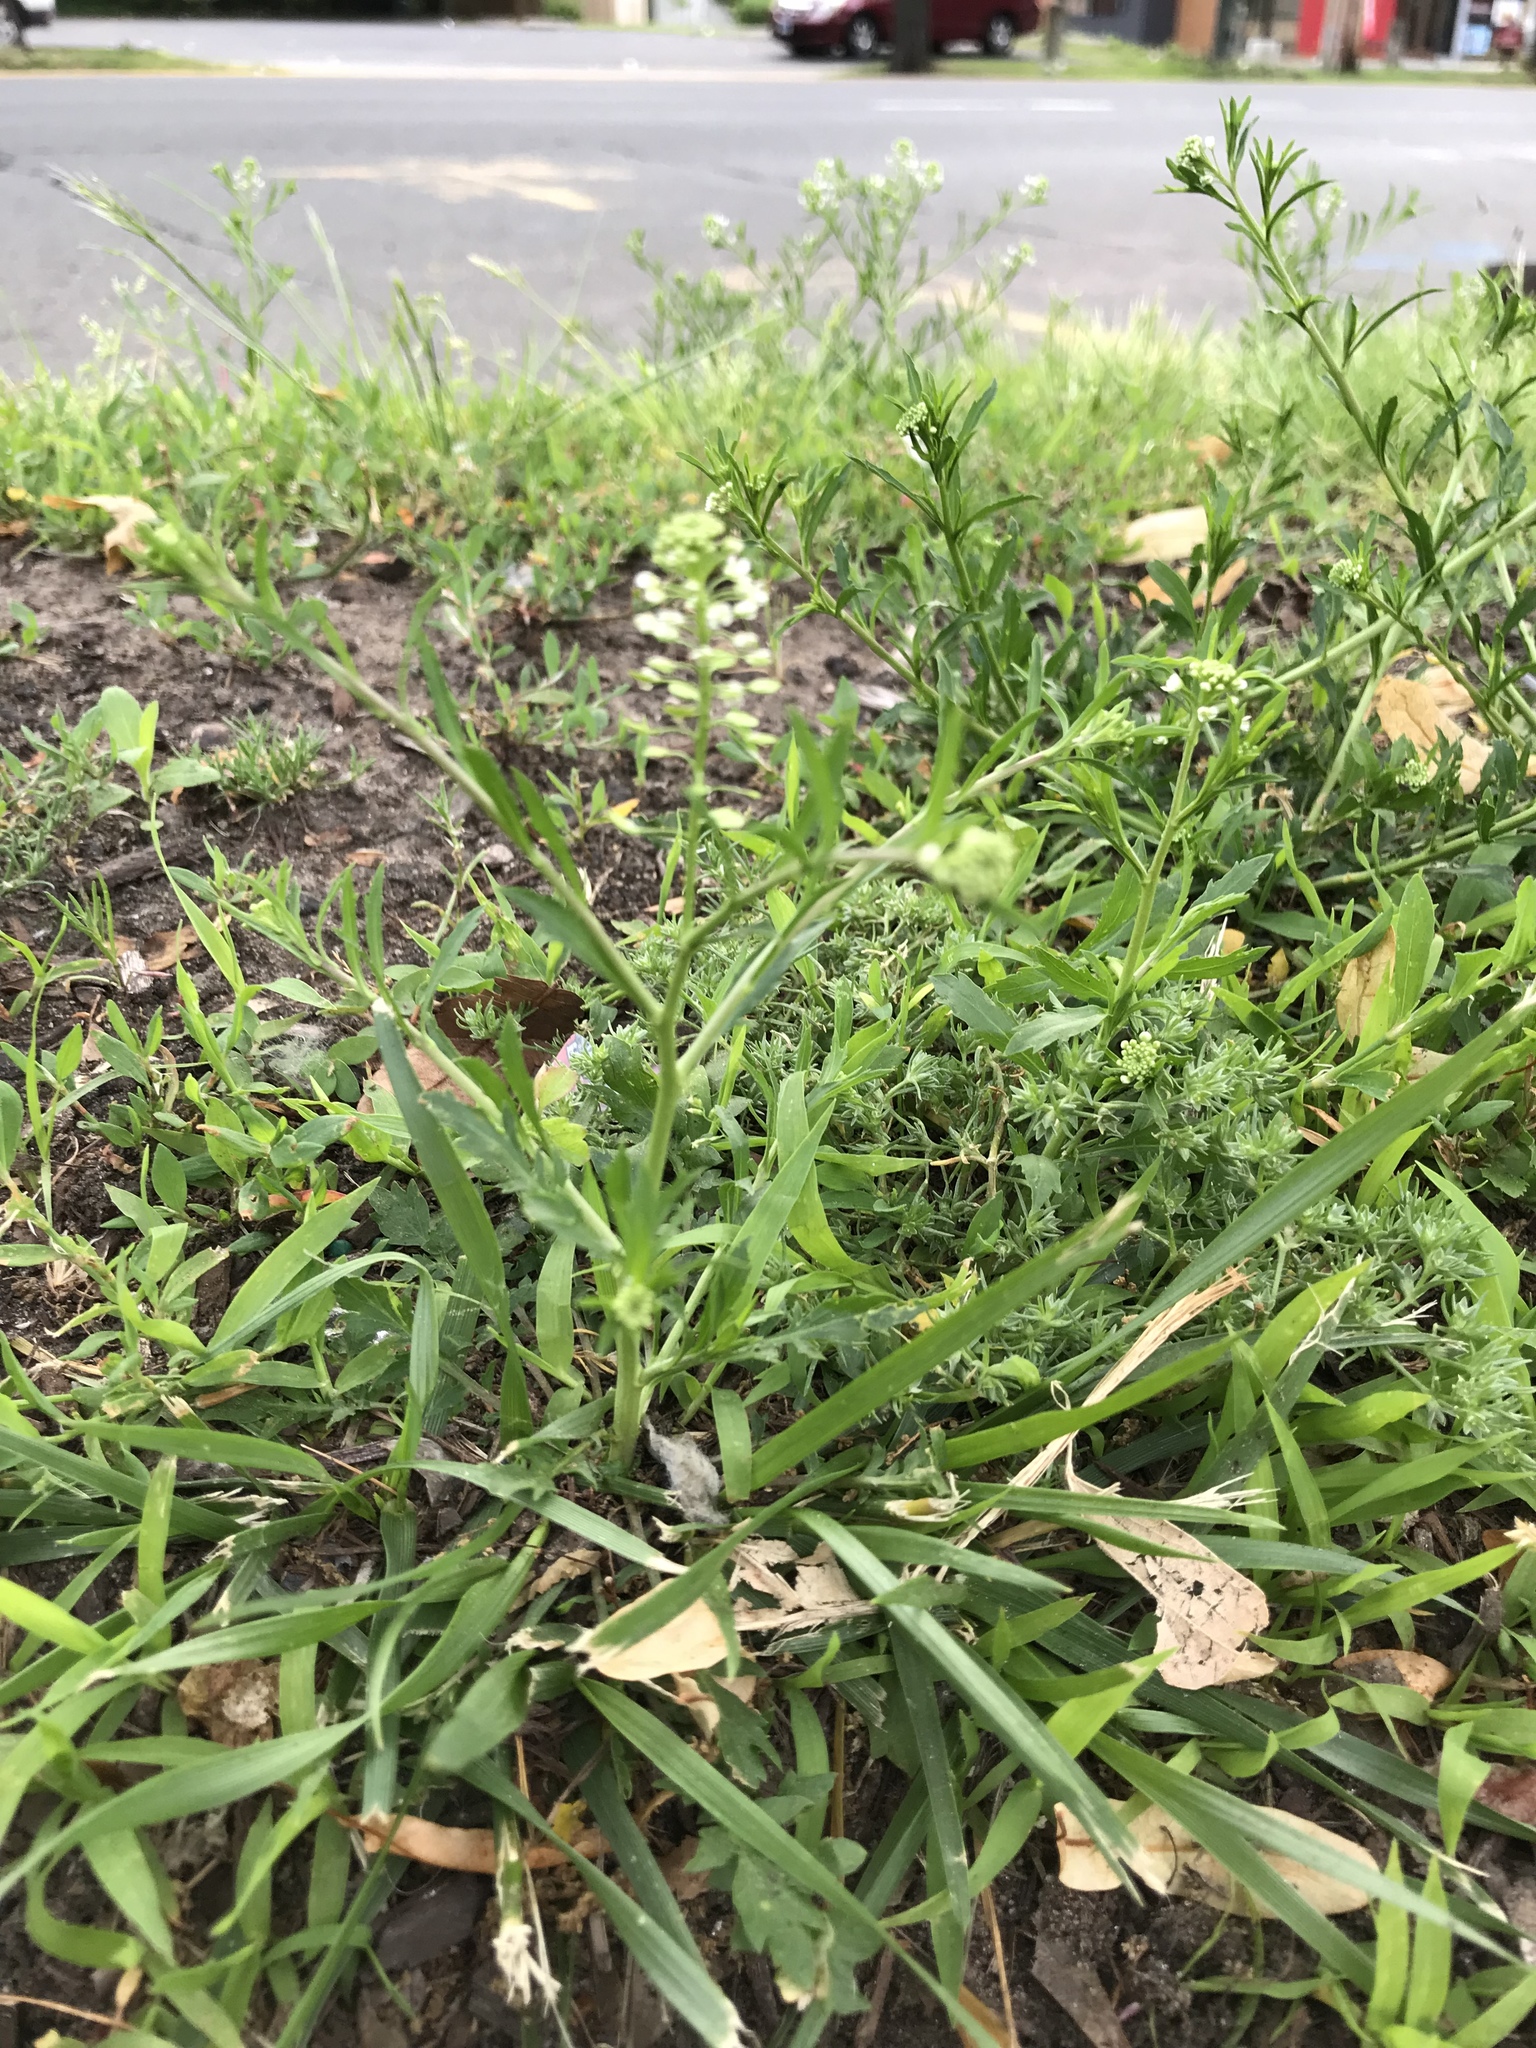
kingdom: Plantae
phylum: Tracheophyta
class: Magnoliopsida
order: Brassicales
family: Brassicaceae
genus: Lepidium
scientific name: Lepidium virginicum
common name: Least pepperwort
